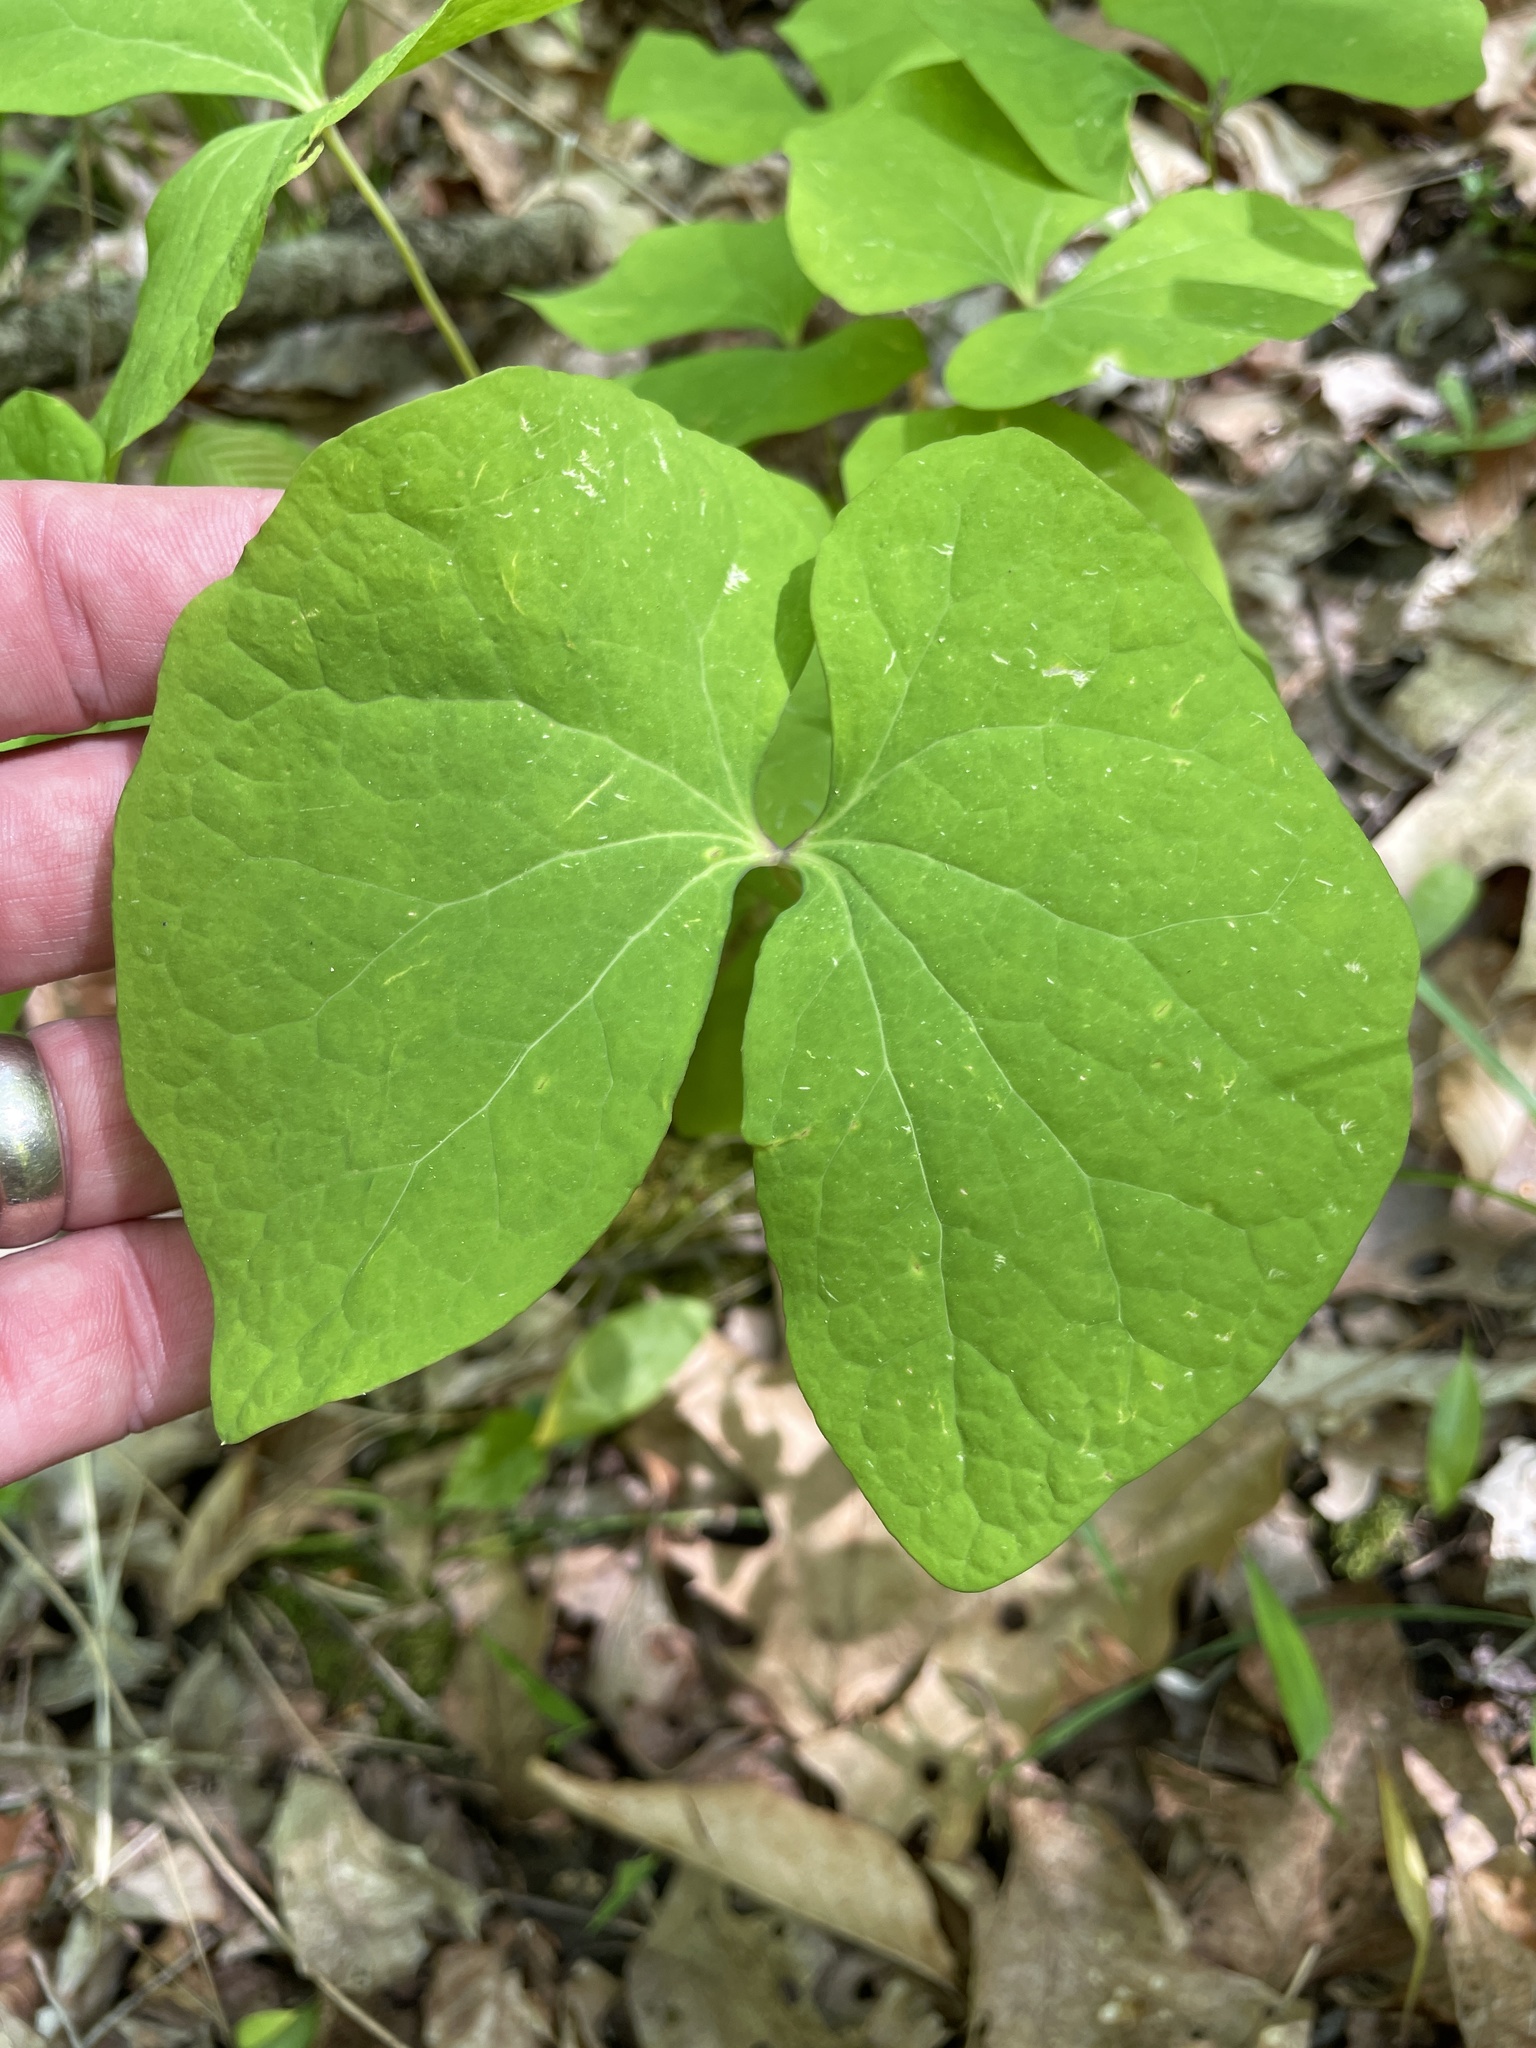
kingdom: Plantae
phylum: Tracheophyta
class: Magnoliopsida
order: Ranunculales
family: Berberidaceae
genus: Jeffersonia
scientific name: Jeffersonia diphylla
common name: Rheumatism-root
